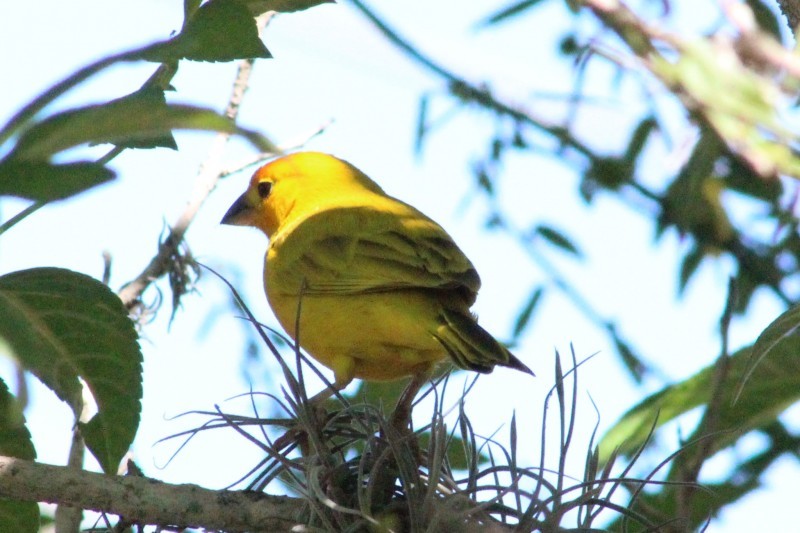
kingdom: Animalia
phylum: Chordata
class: Aves
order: Passeriformes
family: Thraupidae
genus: Sicalis
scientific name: Sicalis flaveola
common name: Saffron finch
